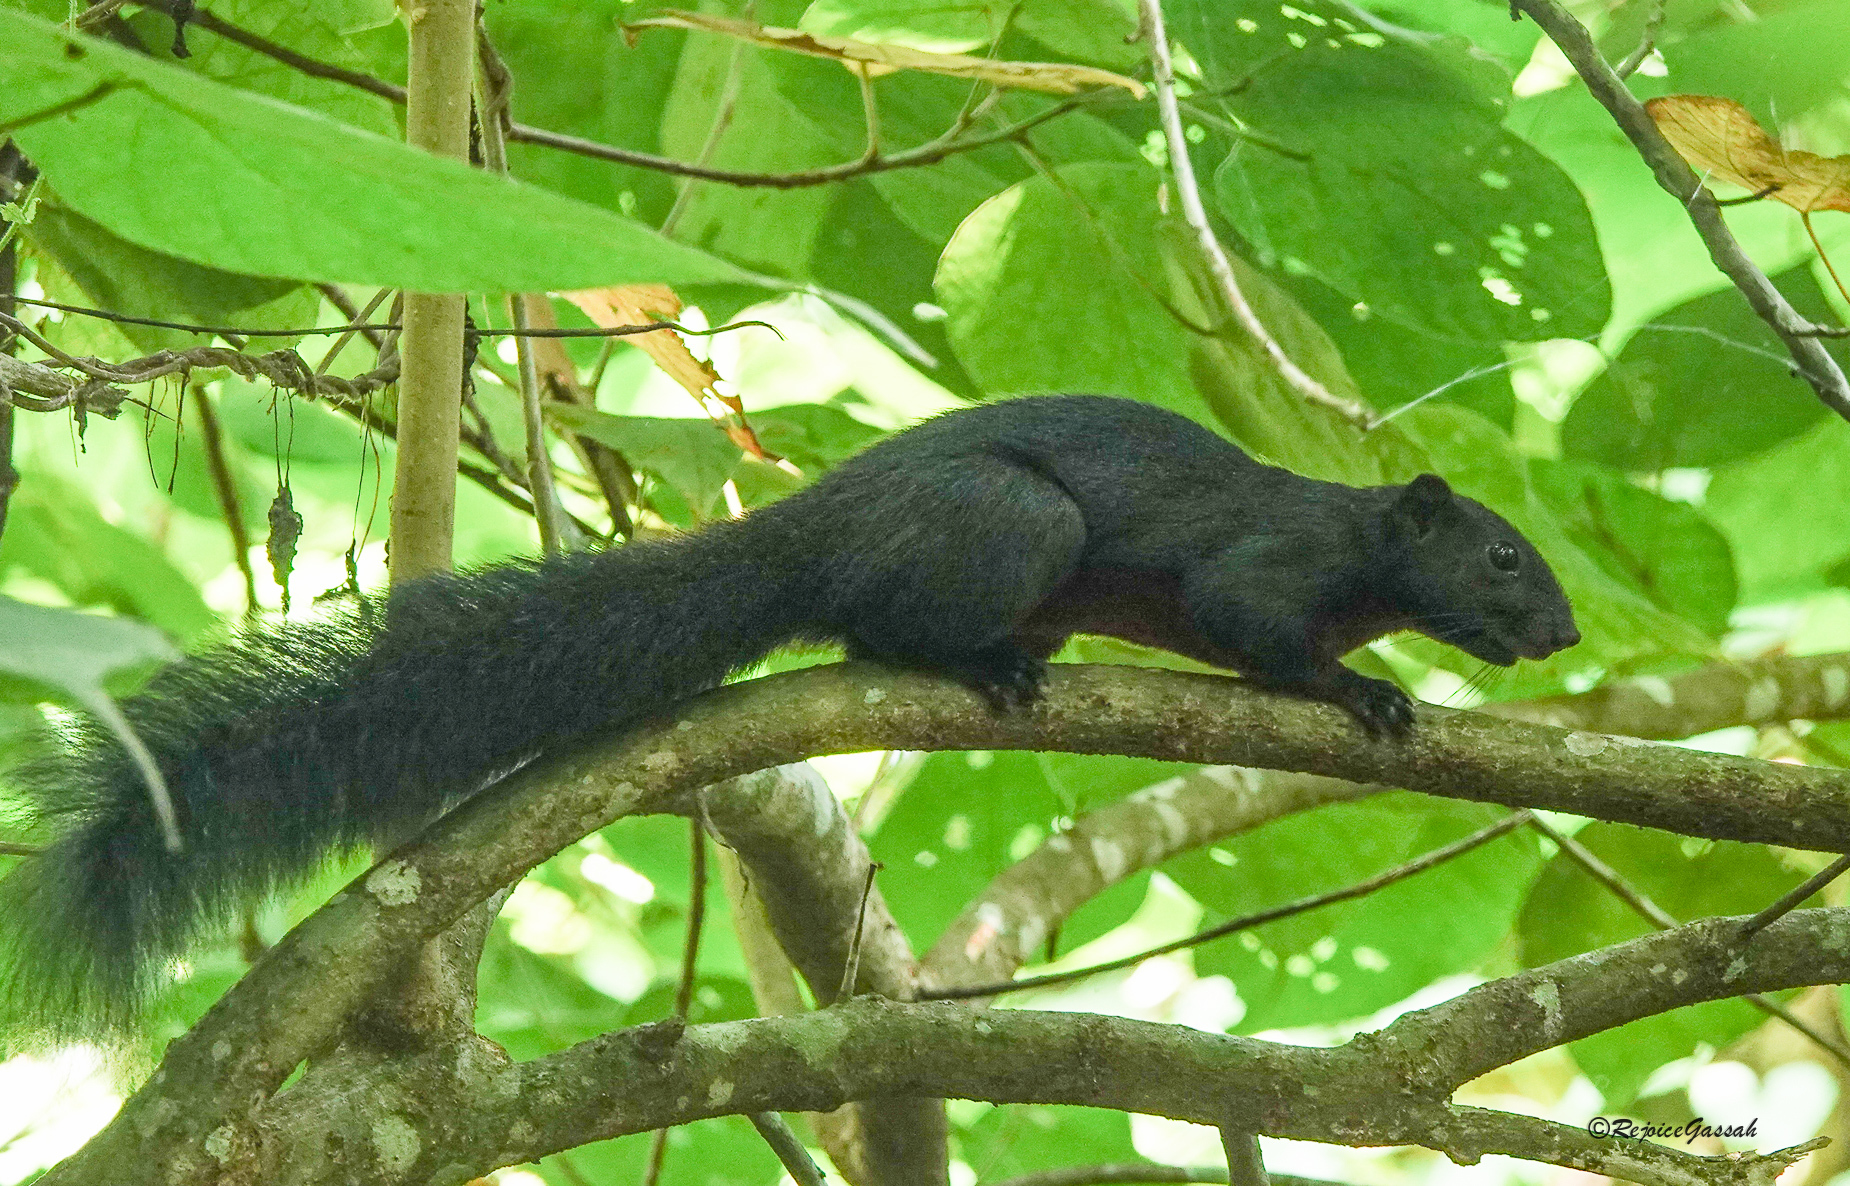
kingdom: Animalia
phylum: Chordata
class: Mammalia
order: Rodentia
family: Sciuridae
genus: Callosciurus
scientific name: Callosciurus erythraeus
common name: Pallas's squirrel
